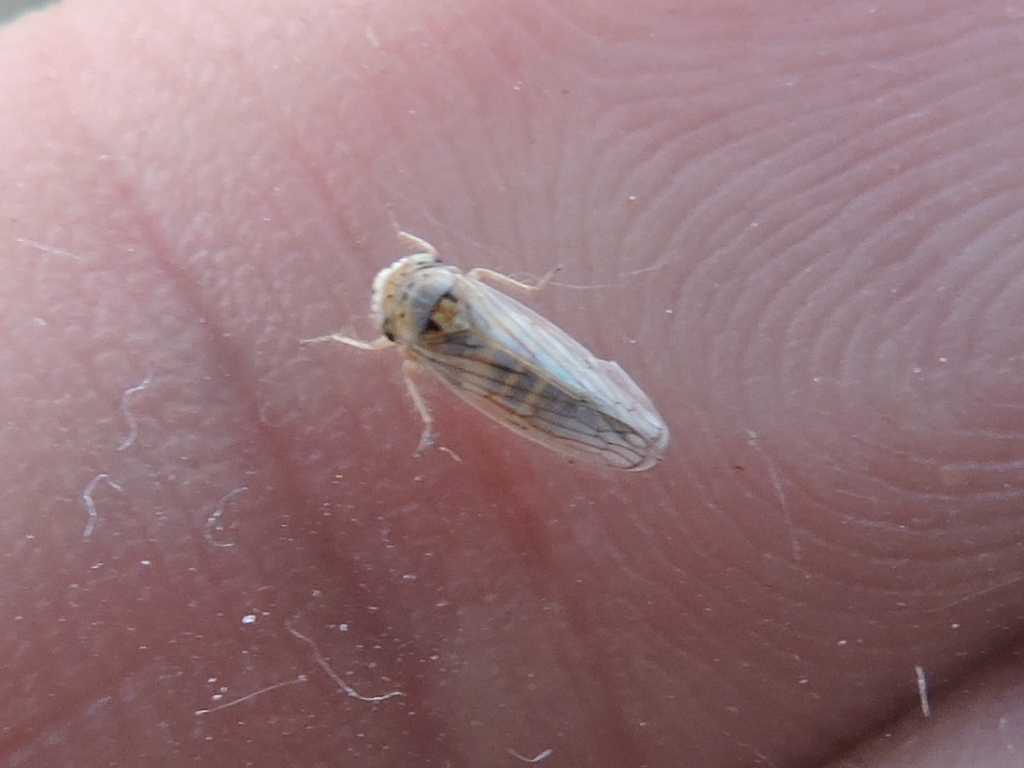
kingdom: Animalia
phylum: Arthropoda
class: Insecta
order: Hemiptera
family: Cicadellidae
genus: Exitianus
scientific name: Exitianus exitiosus
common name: Gray lawn leafhopper
